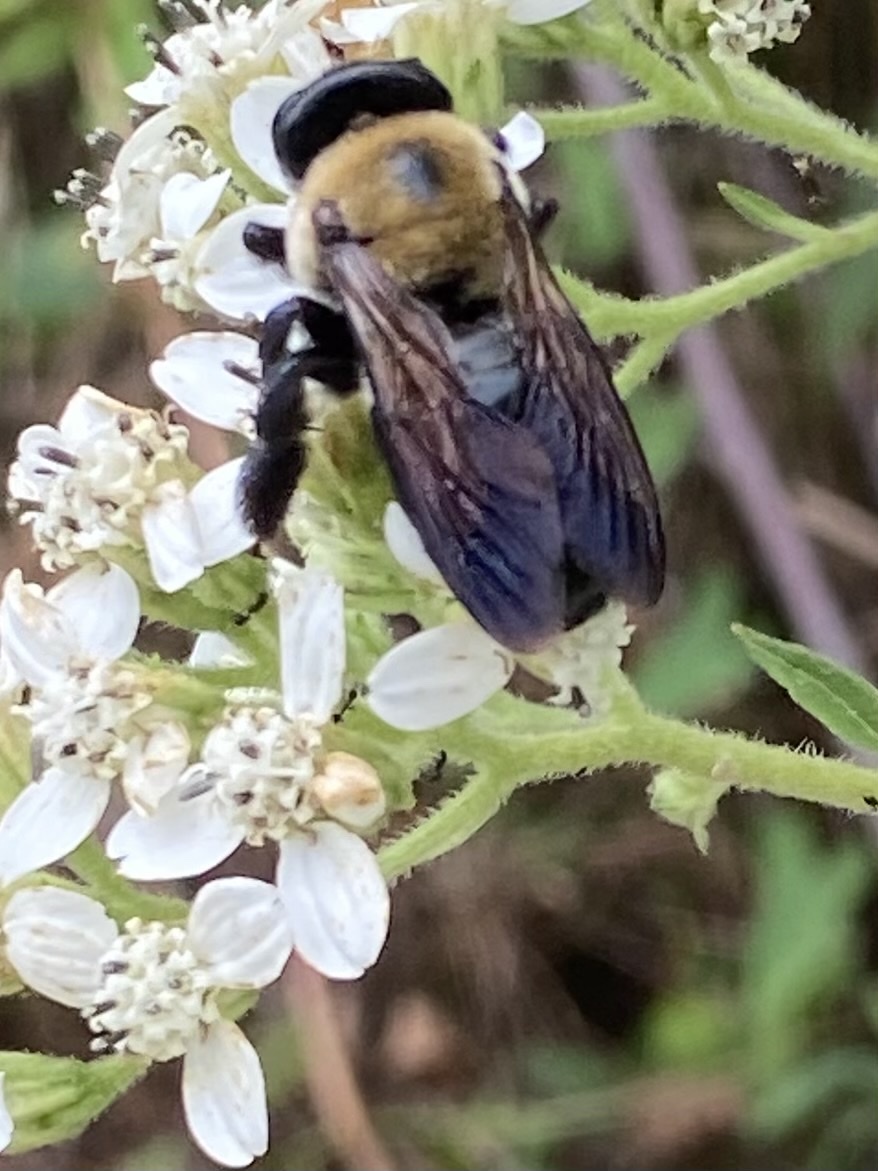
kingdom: Animalia
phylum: Arthropoda
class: Insecta
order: Hymenoptera
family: Apidae
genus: Xylocopa
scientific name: Xylocopa virginica
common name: Carpenter bee
